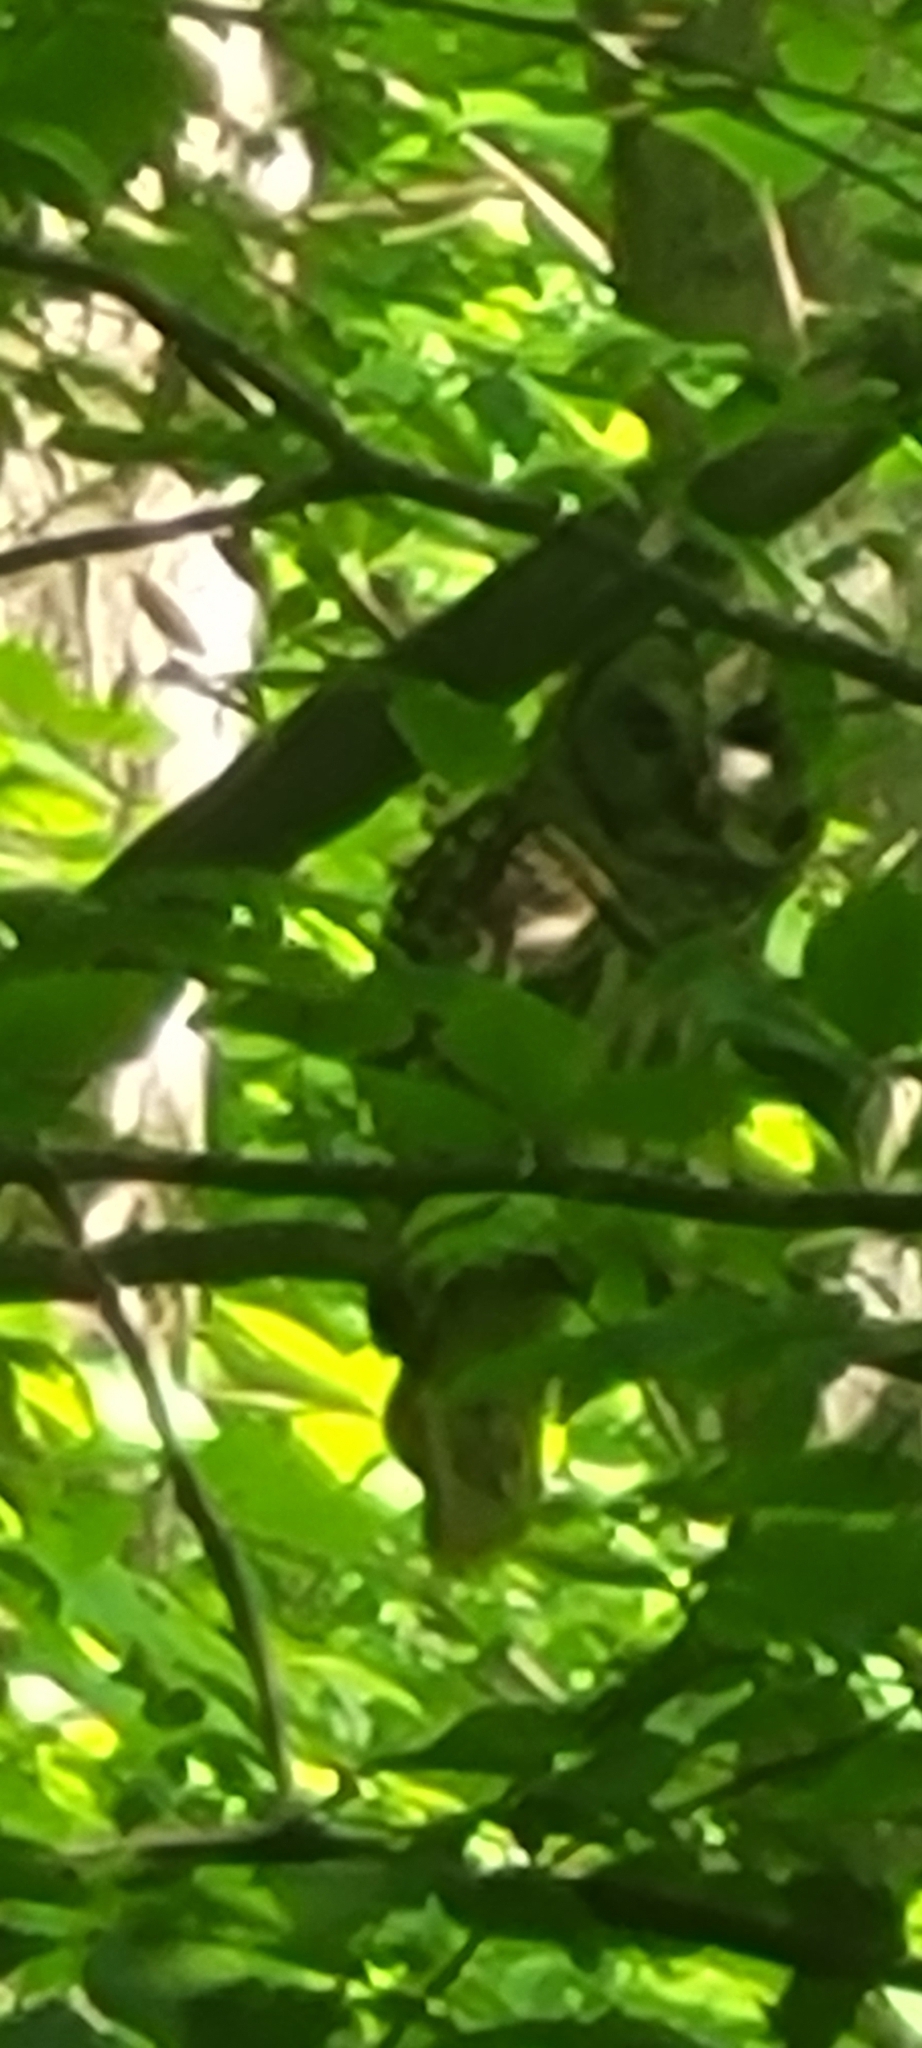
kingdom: Animalia
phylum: Chordata
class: Aves
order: Strigiformes
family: Strigidae
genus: Strix
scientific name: Strix varia
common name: Barred owl
